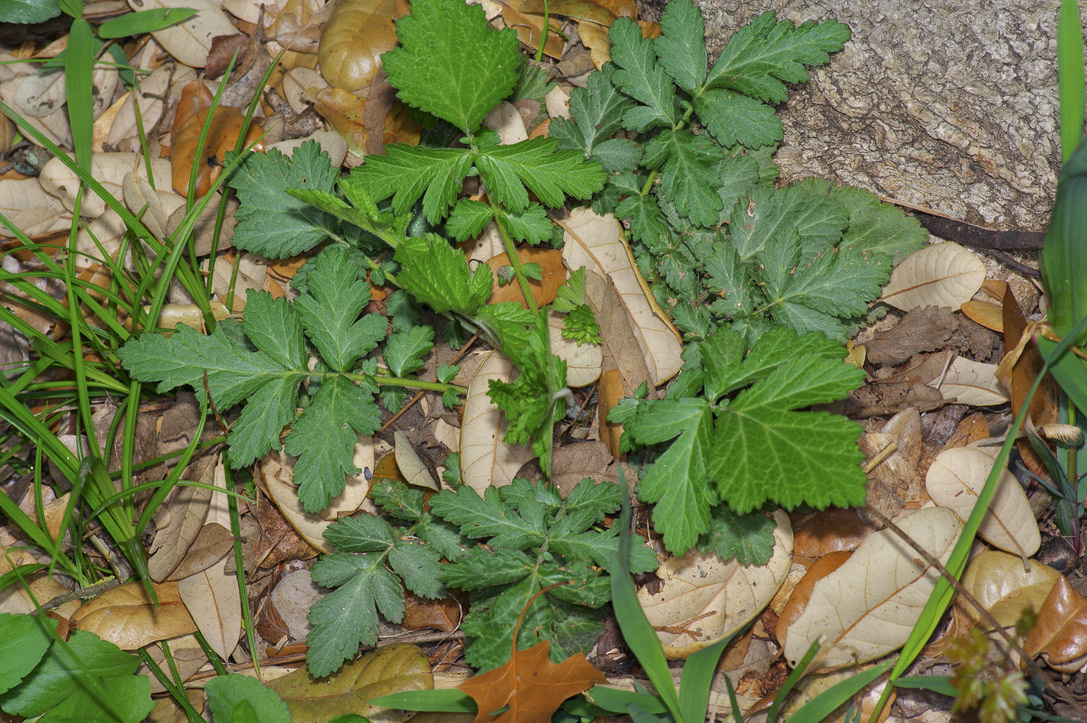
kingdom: Plantae
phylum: Tracheophyta
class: Magnoliopsida
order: Rosales
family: Rosaceae
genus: Geum
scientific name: Geum canadense
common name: White avens
